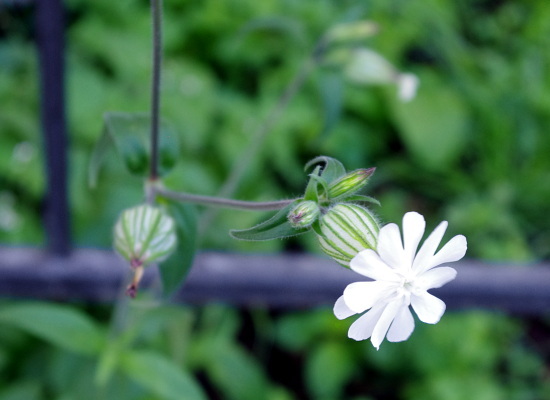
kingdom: Plantae
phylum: Tracheophyta
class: Magnoliopsida
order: Caryophyllales
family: Caryophyllaceae
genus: Silene
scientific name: Silene latifolia
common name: White campion
